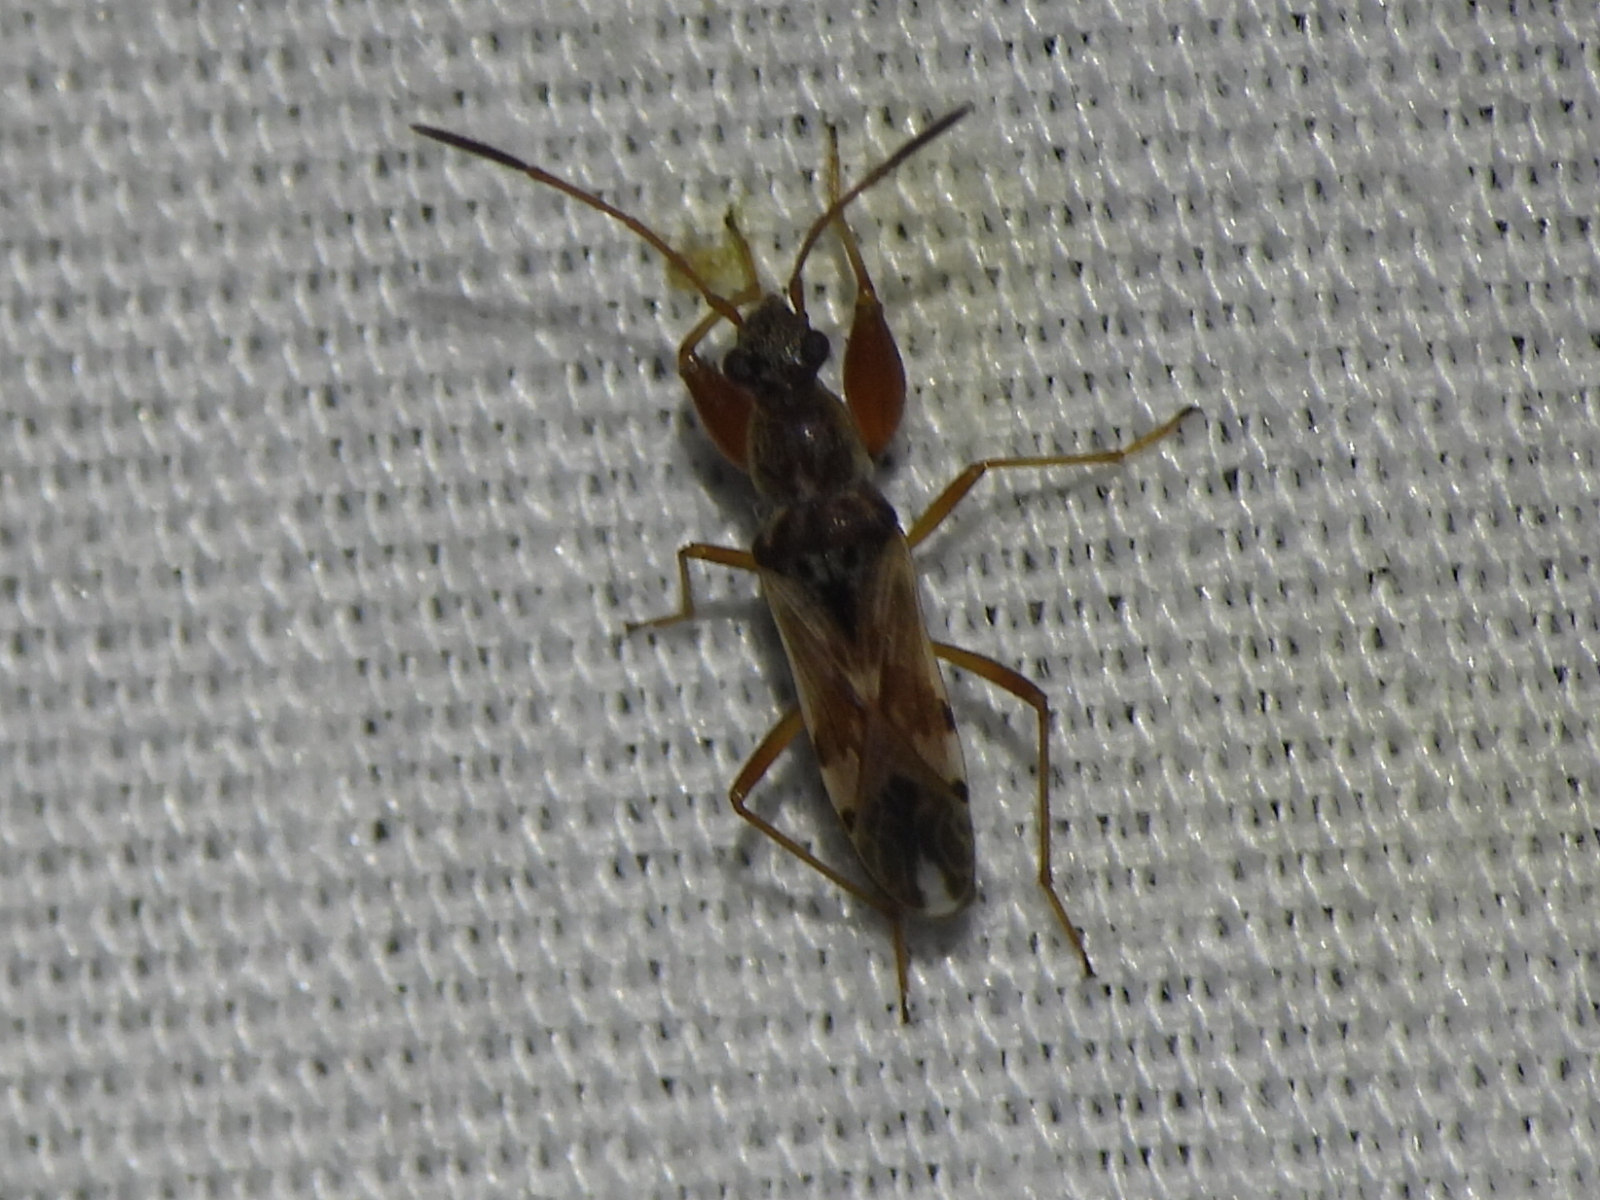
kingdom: Animalia
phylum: Arthropoda
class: Insecta
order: Hemiptera
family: Rhyparochromidae
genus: Neopamera
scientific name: Neopamera bilobata
